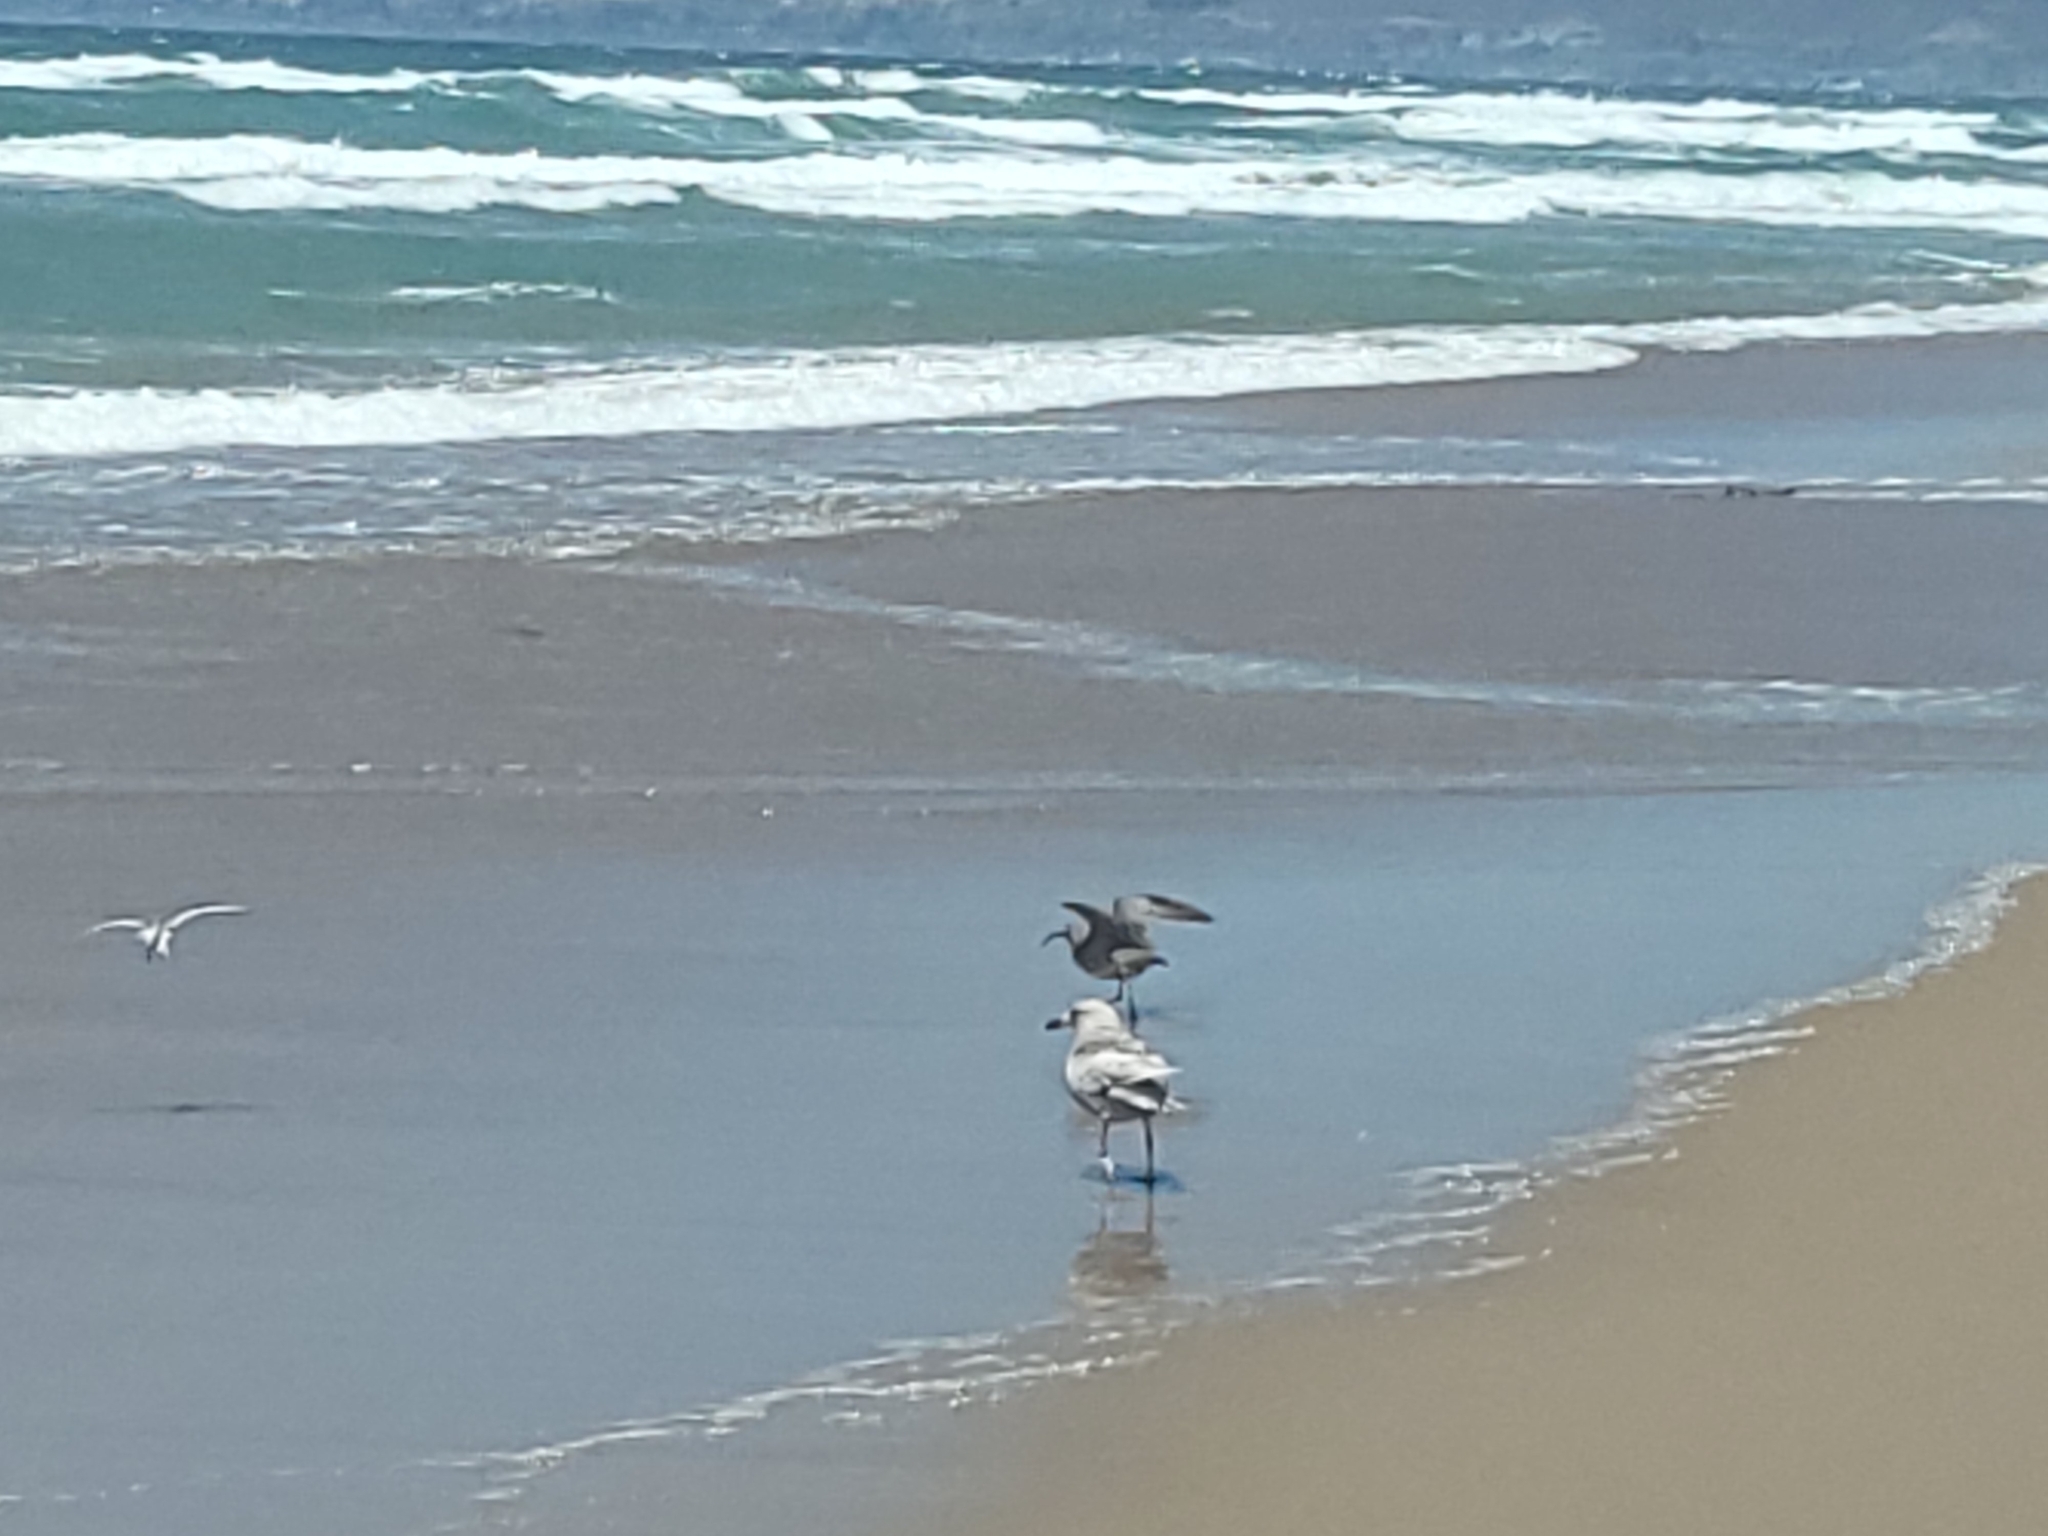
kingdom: Animalia
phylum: Chordata
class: Aves
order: Charadriiformes
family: Scolopacidae
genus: Numenius
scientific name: Numenius phaeopus
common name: Whimbrel
